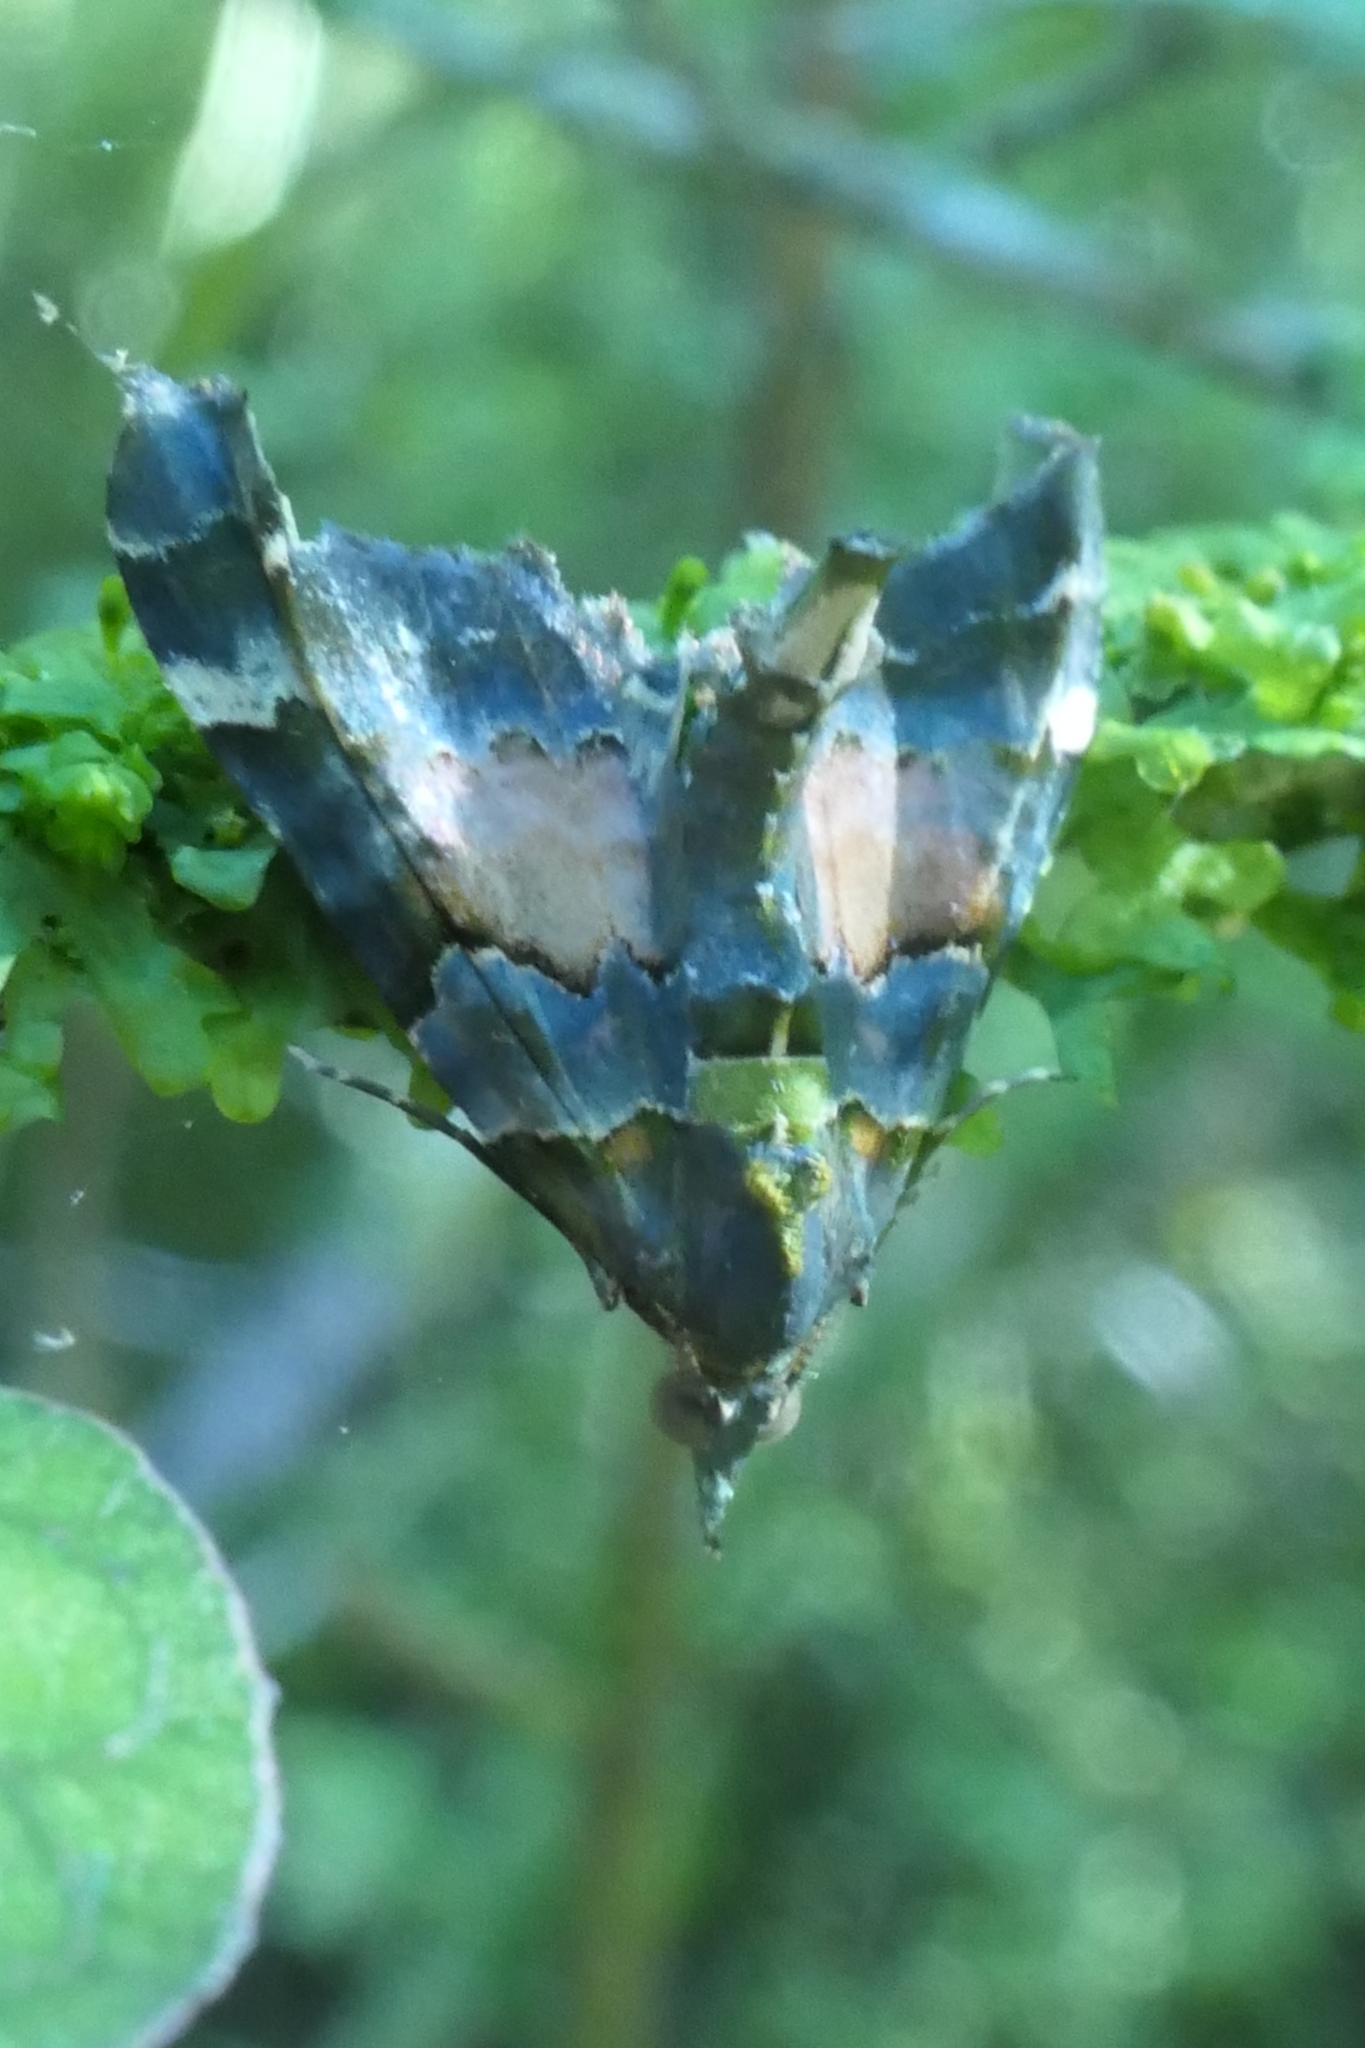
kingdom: Animalia
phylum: Arthropoda
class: Insecta
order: Lepidoptera
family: Geometridae
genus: Elvia
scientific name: Elvia glaucata
